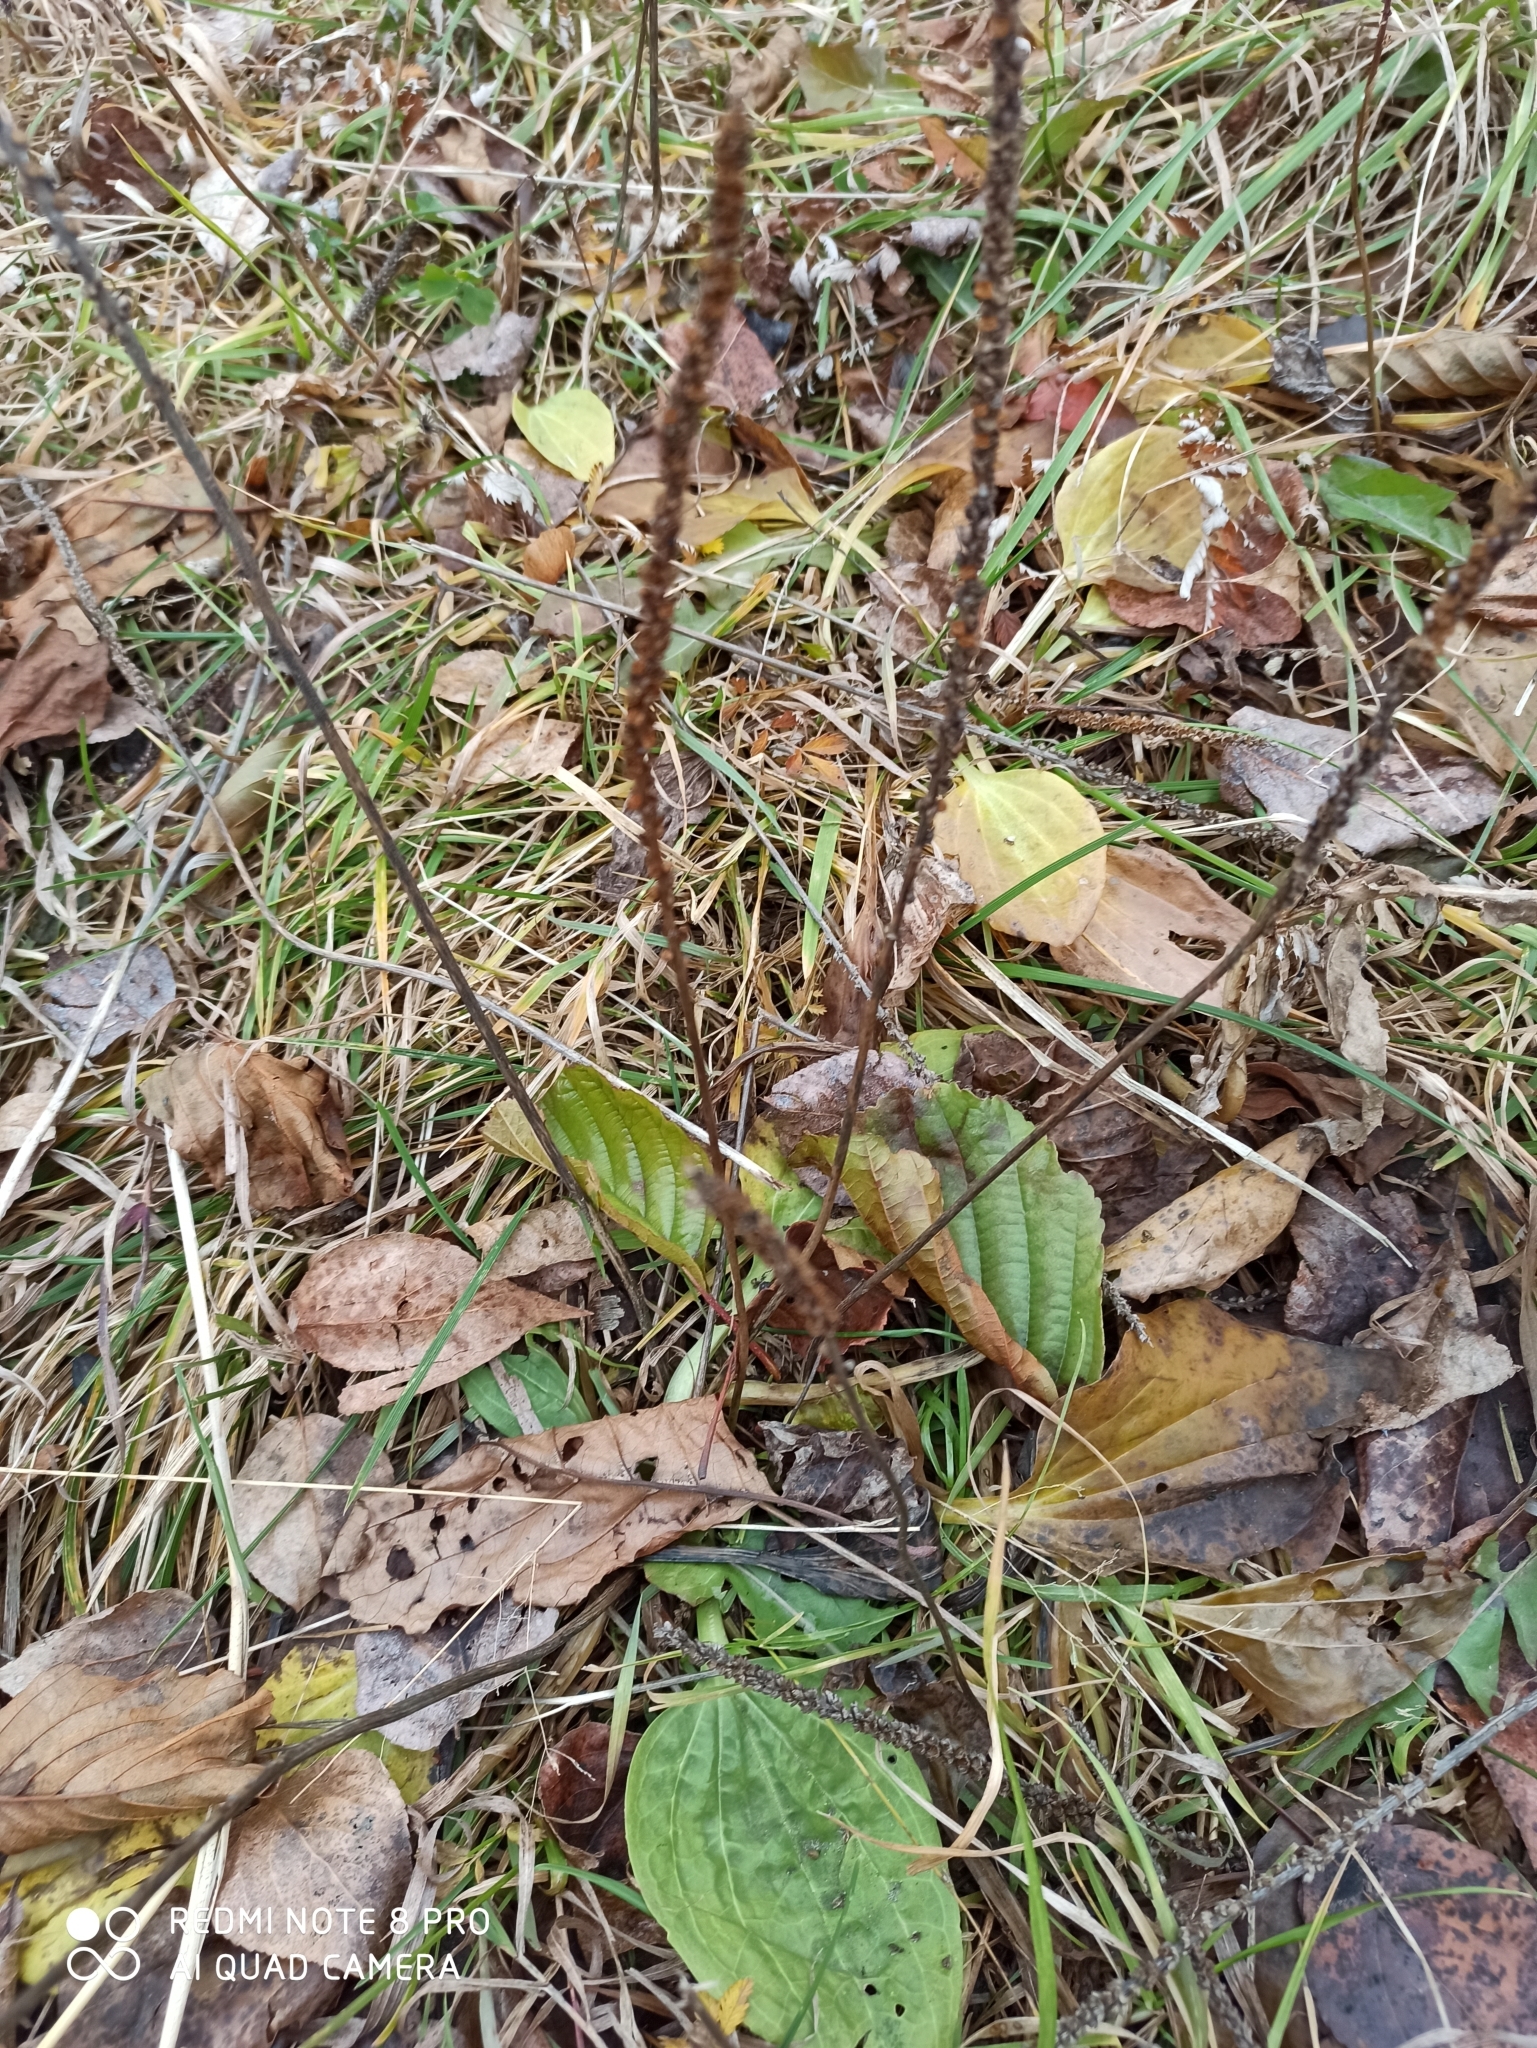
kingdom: Plantae
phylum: Tracheophyta
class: Magnoliopsida
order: Lamiales
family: Plantaginaceae
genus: Plantago
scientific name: Plantago major
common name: Common plantain
